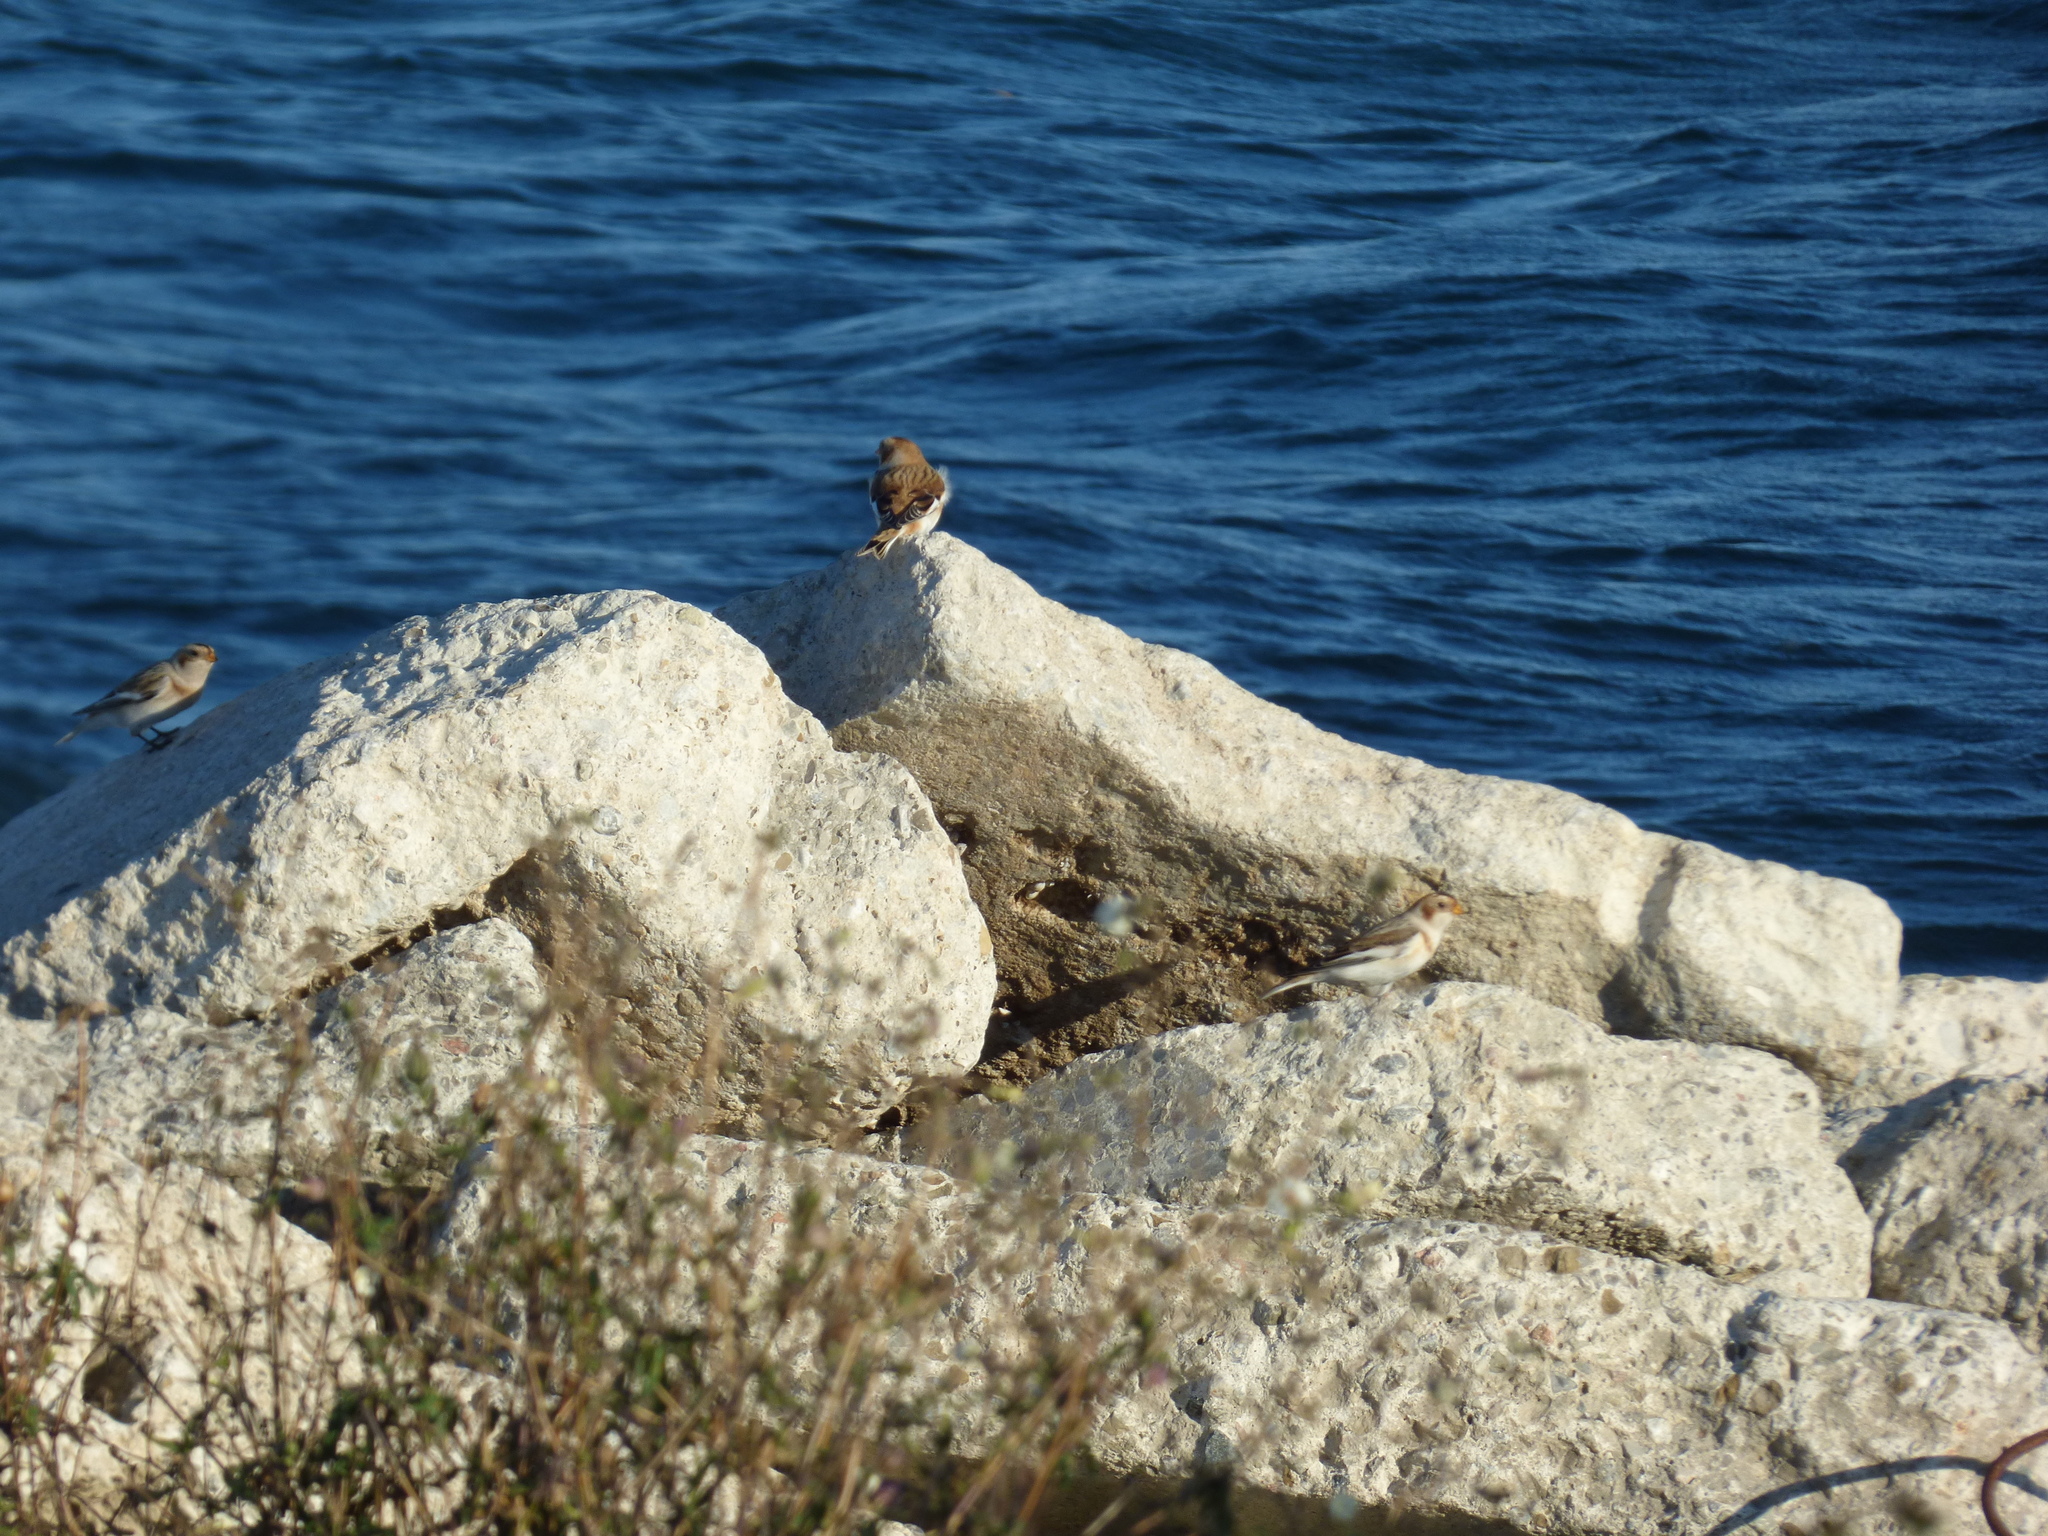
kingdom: Animalia
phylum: Chordata
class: Aves
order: Passeriformes
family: Calcariidae
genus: Plectrophenax
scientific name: Plectrophenax nivalis
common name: Snow bunting
